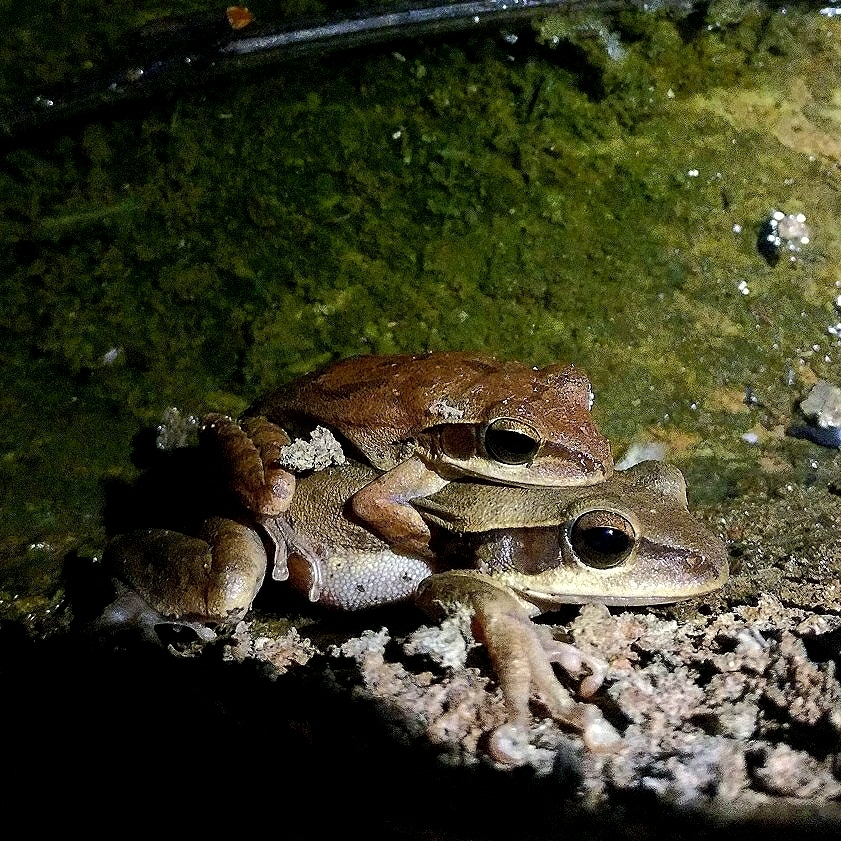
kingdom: Animalia
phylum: Chordata
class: Amphibia
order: Anura
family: Rhacophoridae
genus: Polypedates
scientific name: Polypedates maculatus
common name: Himalayan tree frog
